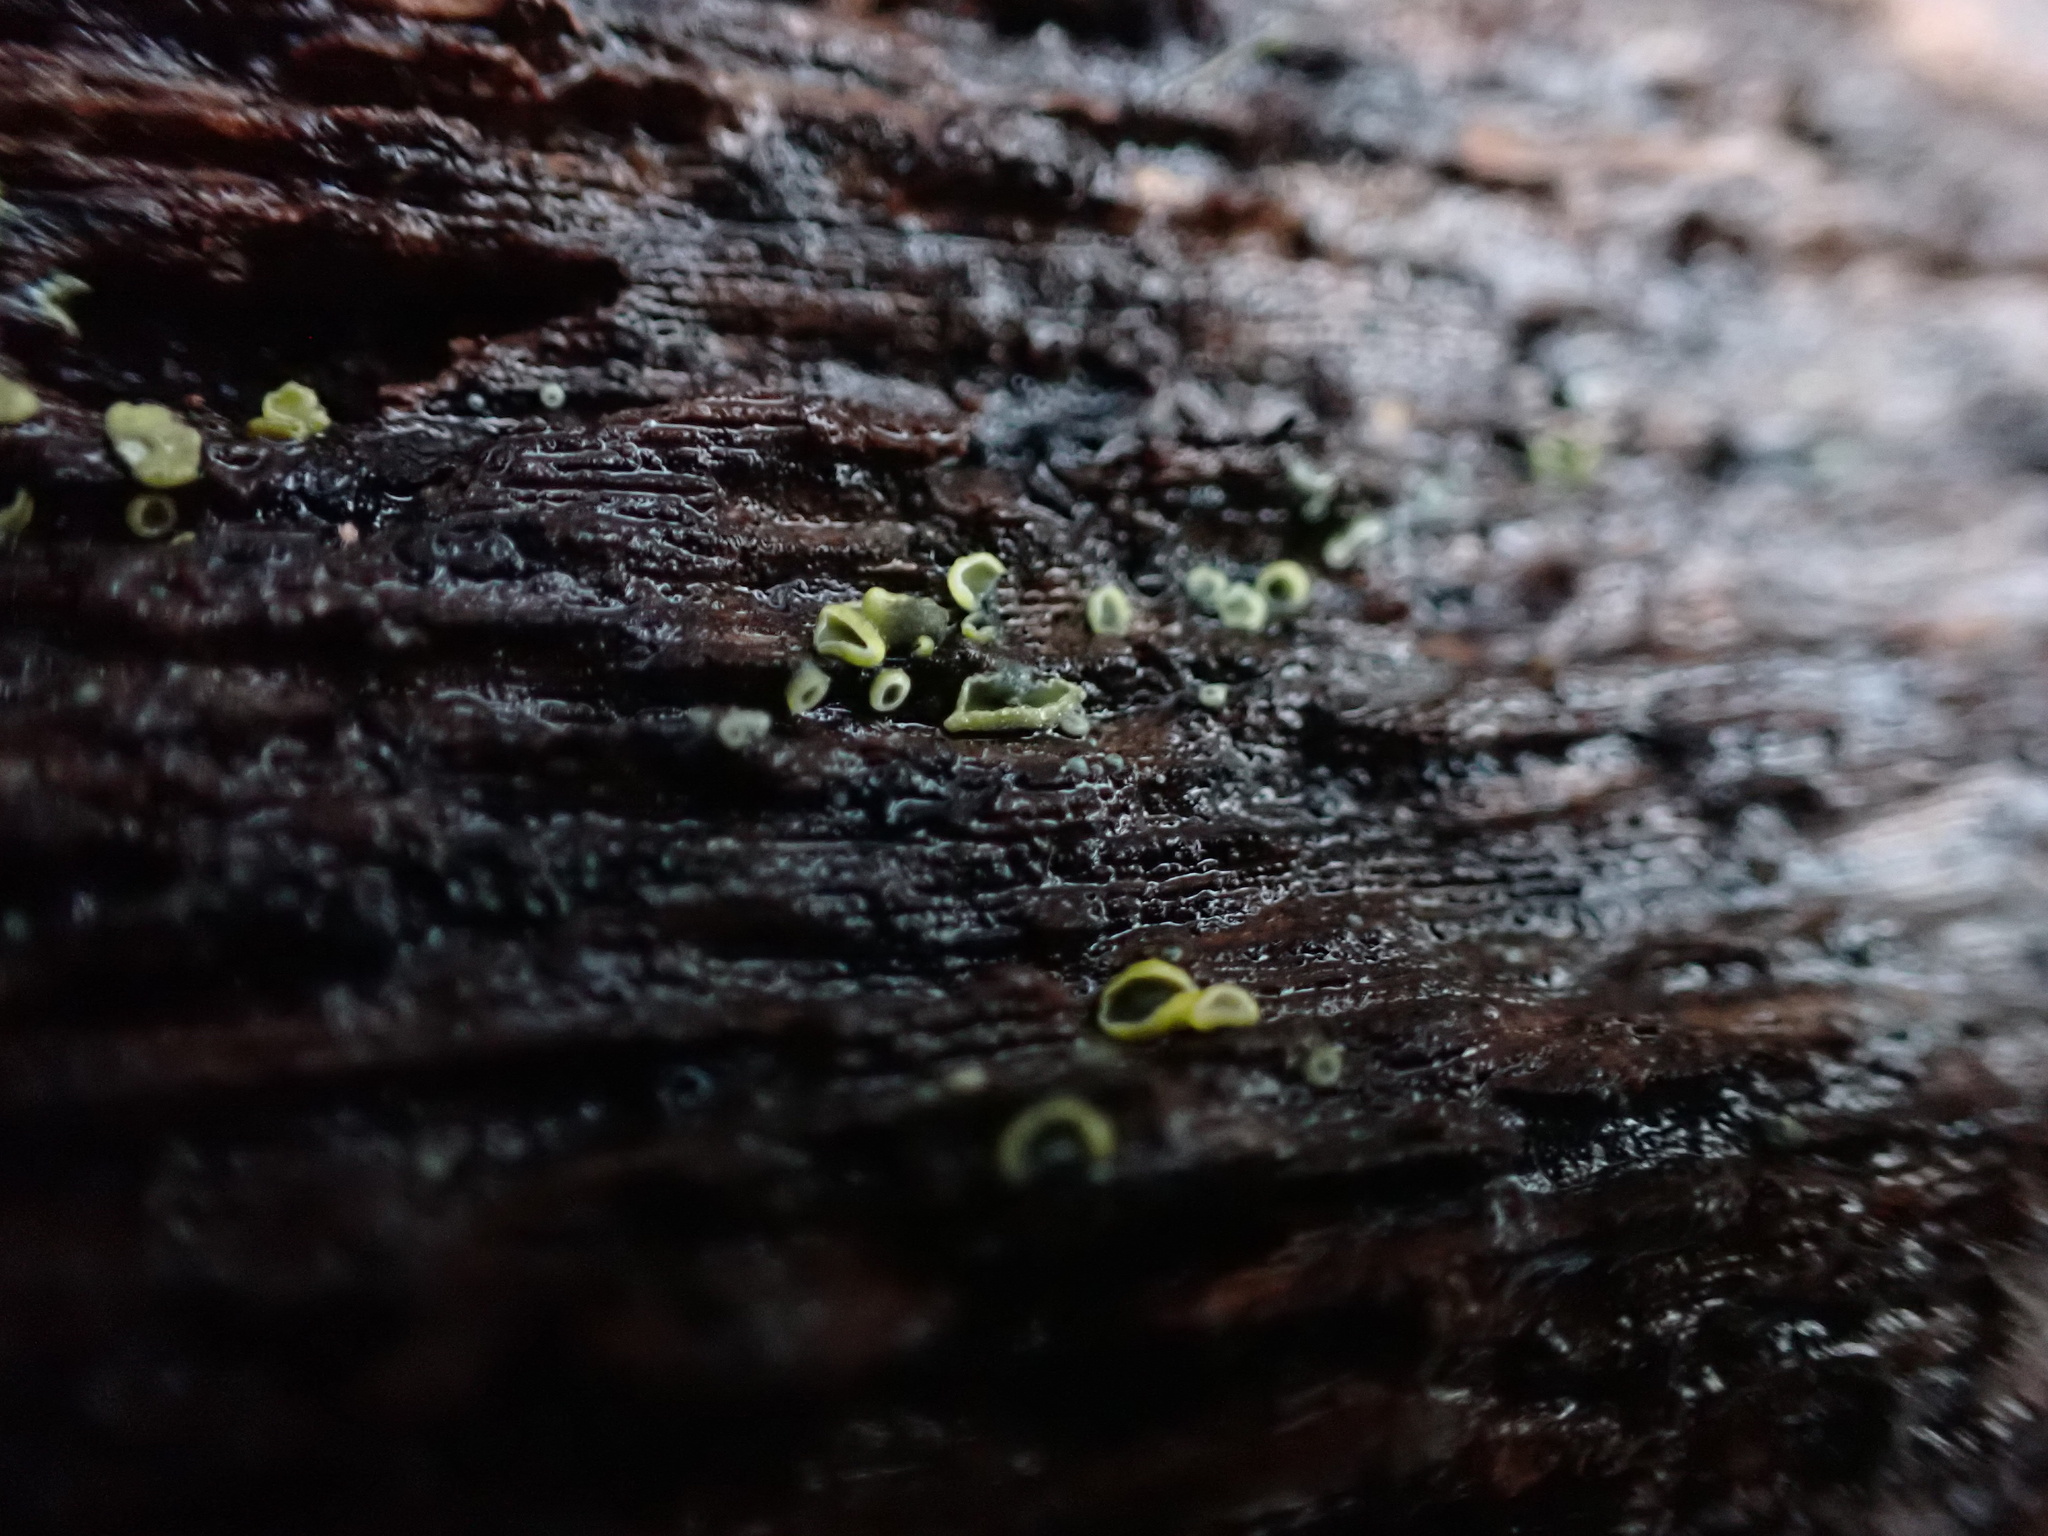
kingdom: Fungi
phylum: Ascomycota
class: Leotiomycetes
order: Helotiales
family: Chlorospleniaceae
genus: Chlorosplenium
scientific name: Chlorosplenium chlora
